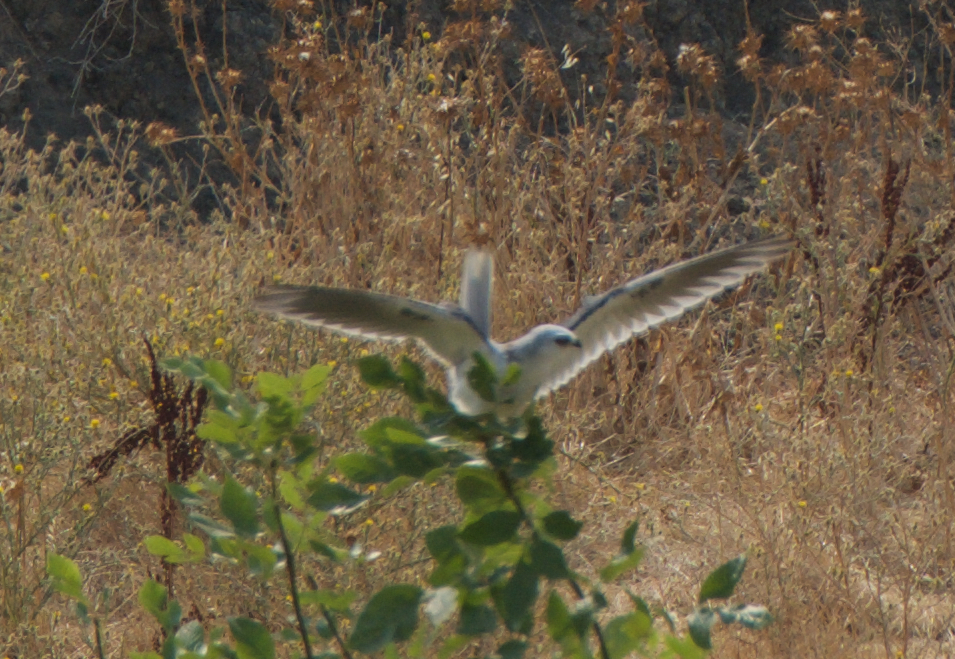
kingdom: Animalia
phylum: Chordata
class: Aves
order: Accipitriformes
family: Accipitridae
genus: Elanus
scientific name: Elanus leucurus
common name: White-tailed kite
